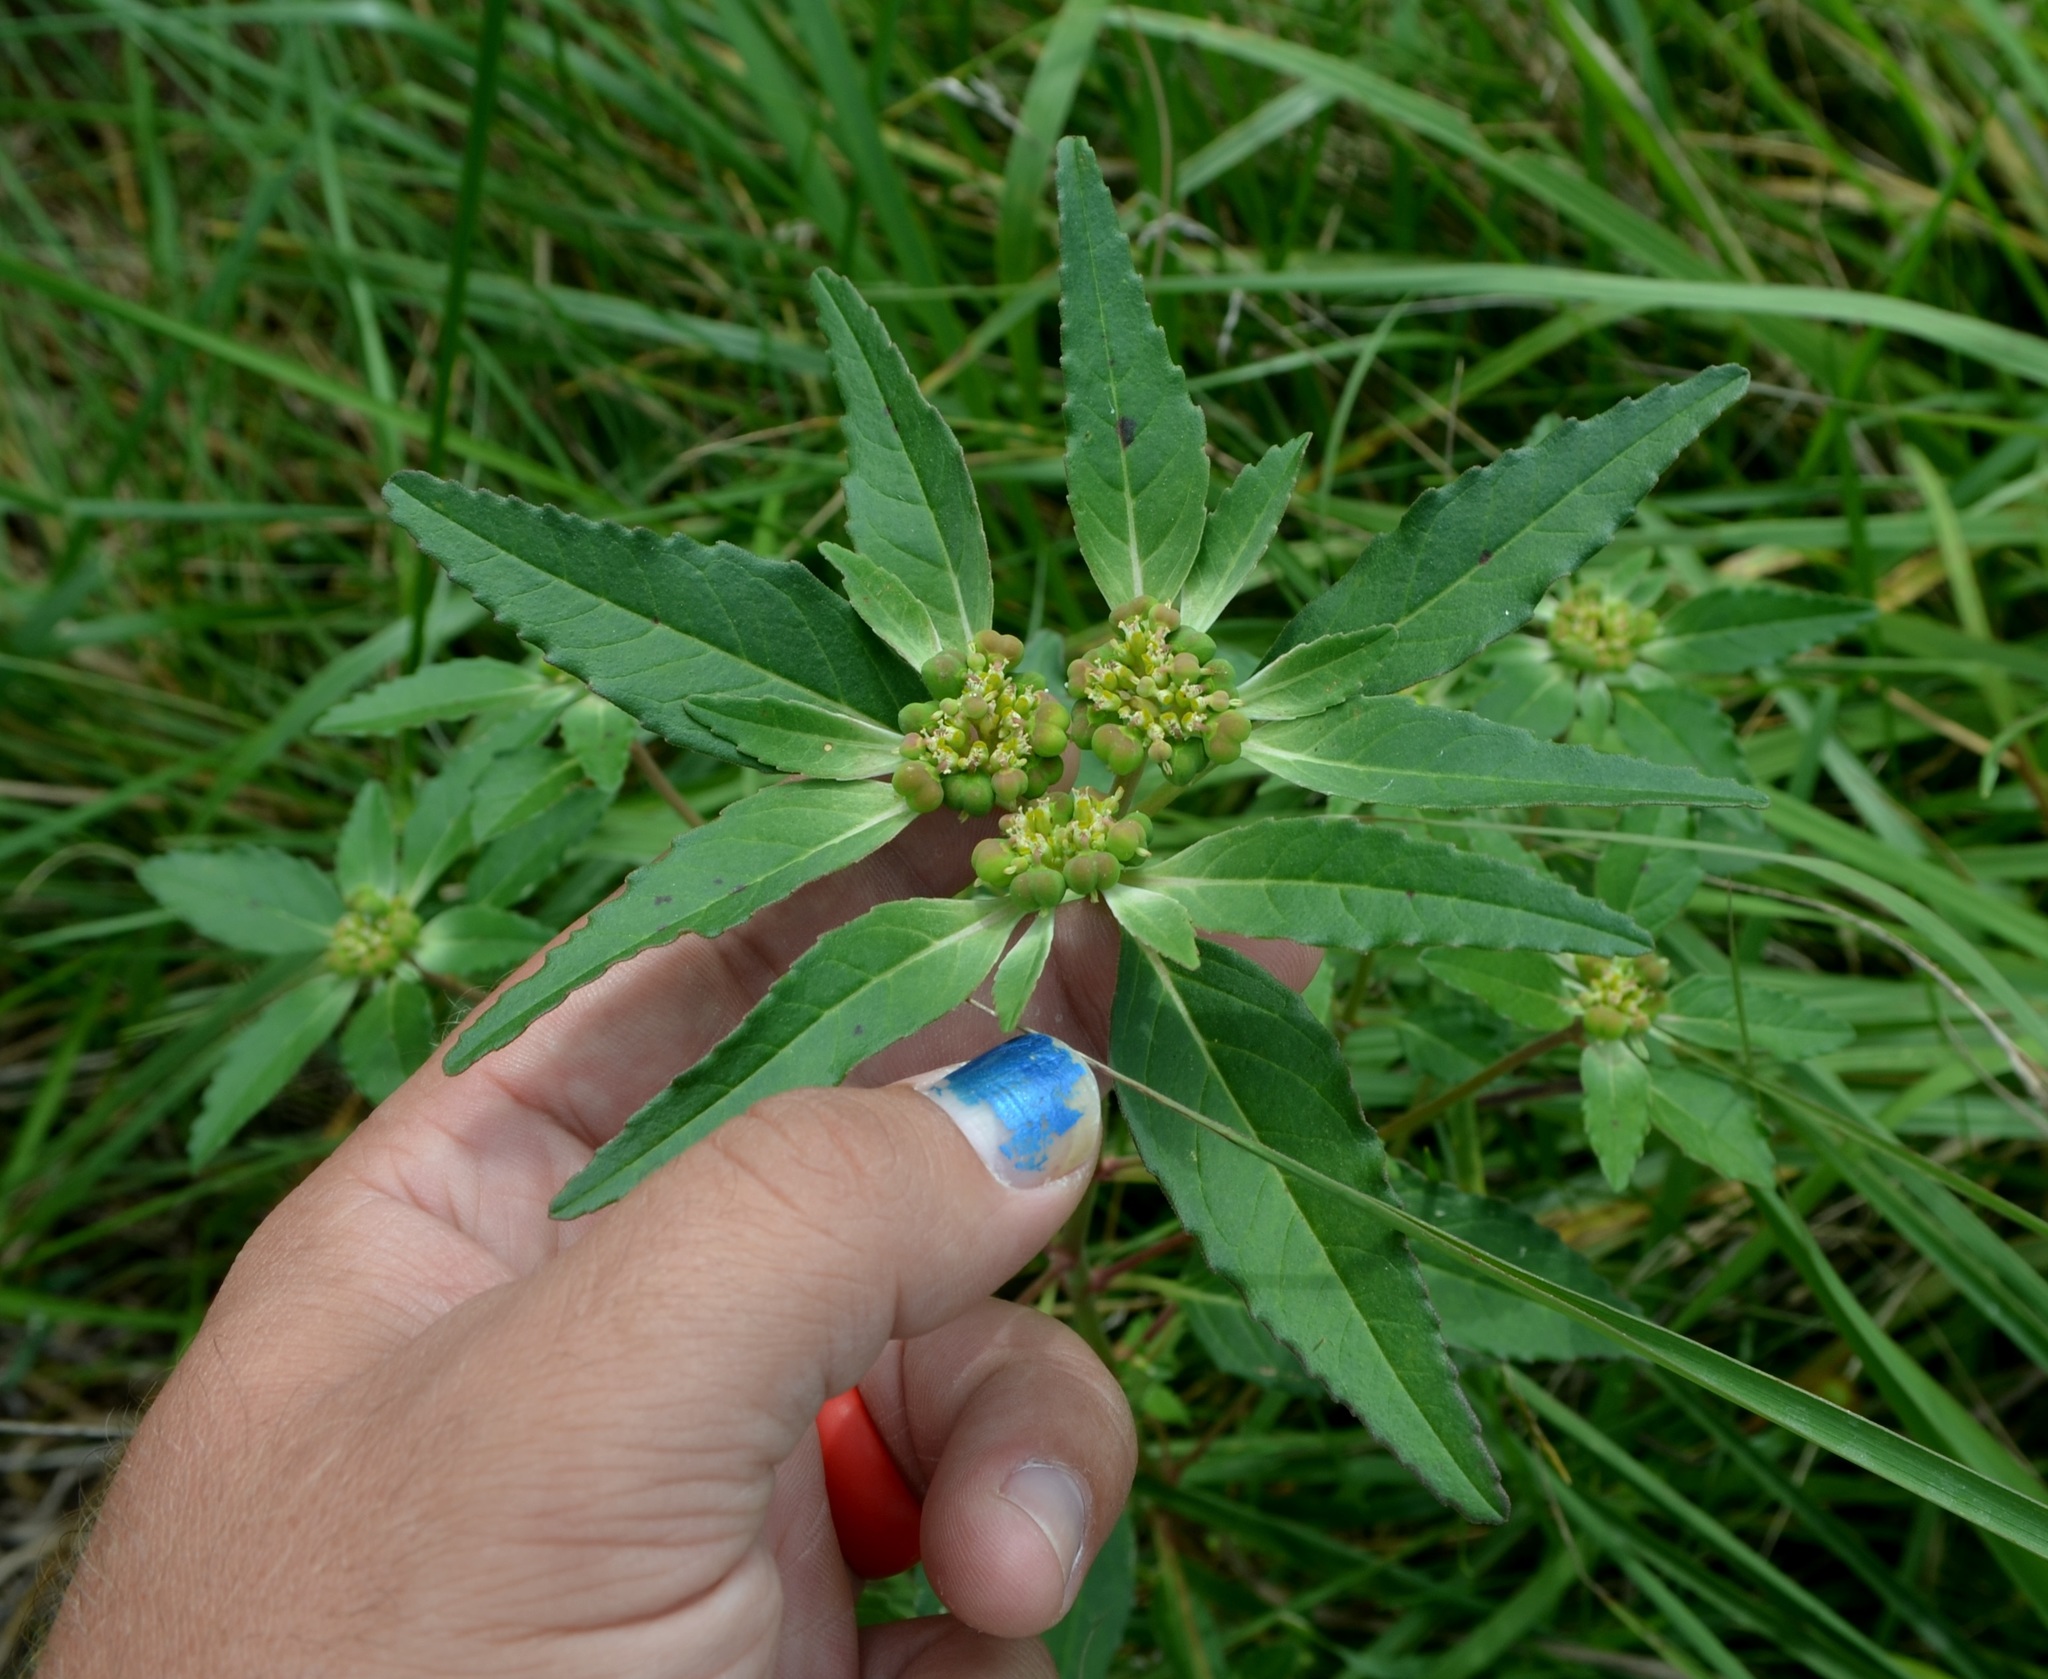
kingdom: Plantae
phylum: Tracheophyta
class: Magnoliopsida
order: Malpighiales
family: Euphorbiaceae
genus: Euphorbia
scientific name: Euphorbia dentata
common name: Dentate spurge
